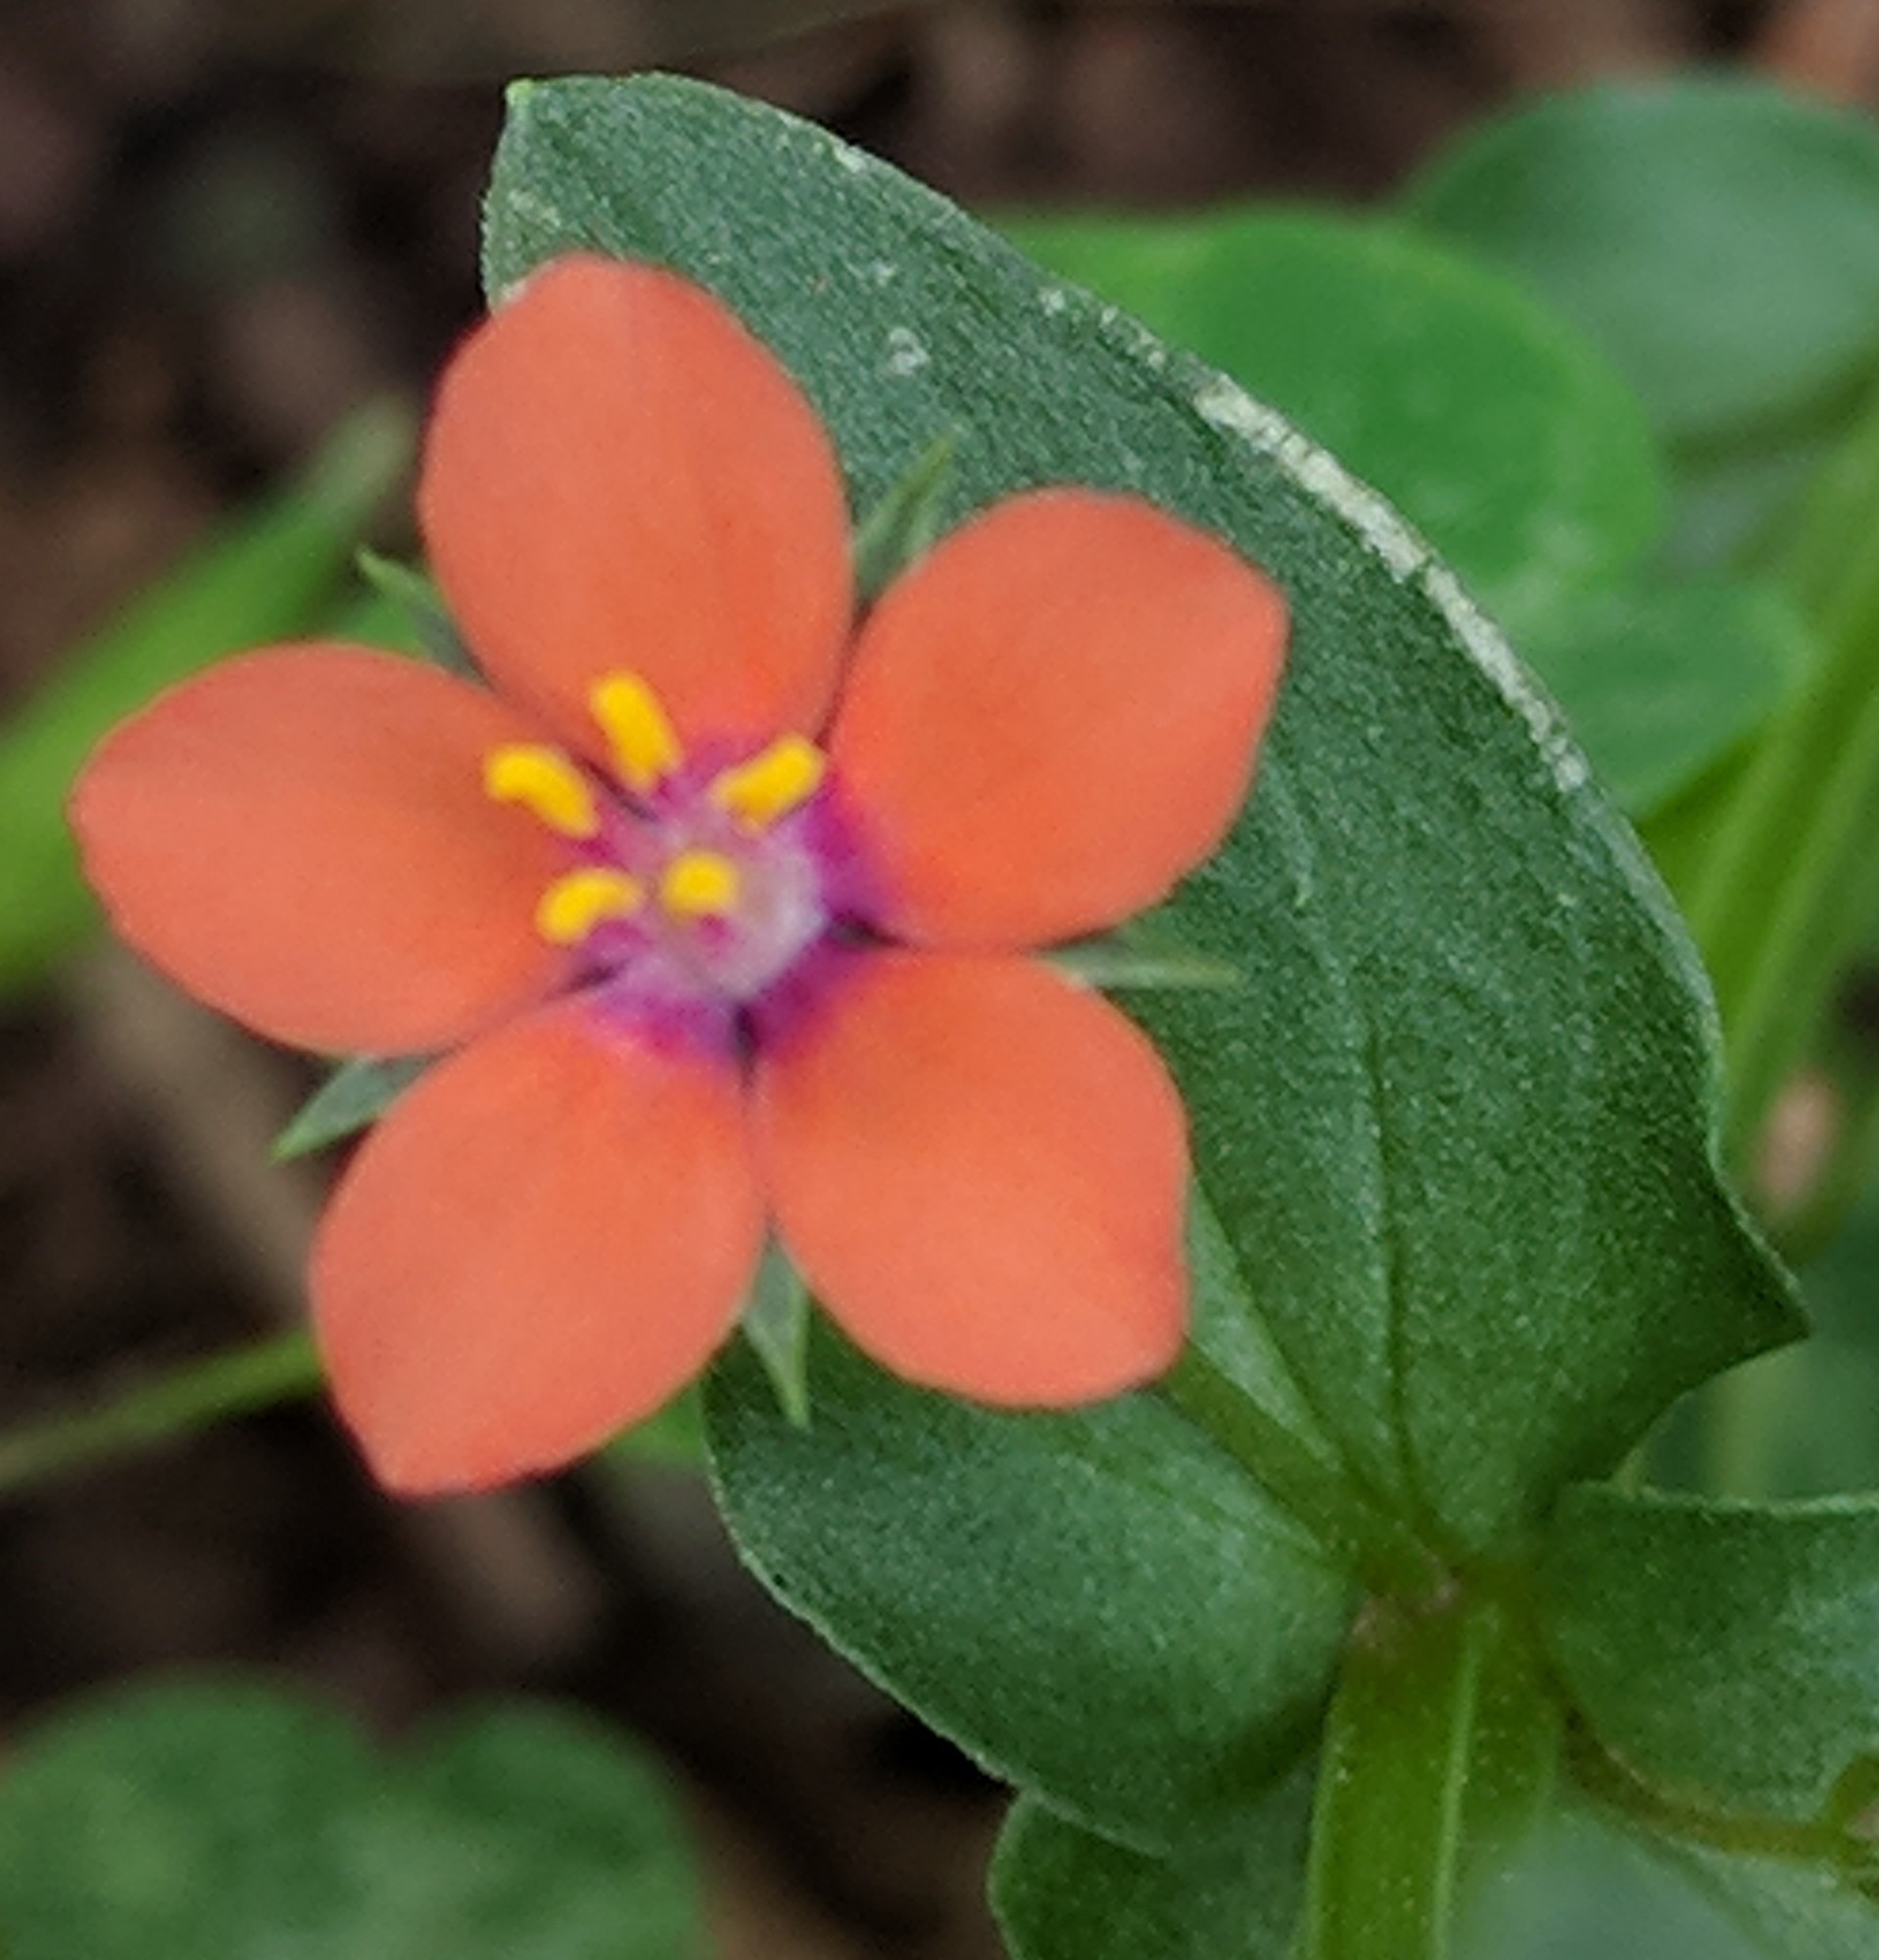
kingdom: Plantae
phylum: Tracheophyta
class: Magnoliopsida
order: Ericales
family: Primulaceae
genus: Lysimachia
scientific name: Lysimachia arvensis
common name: Scarlet pimpernel
